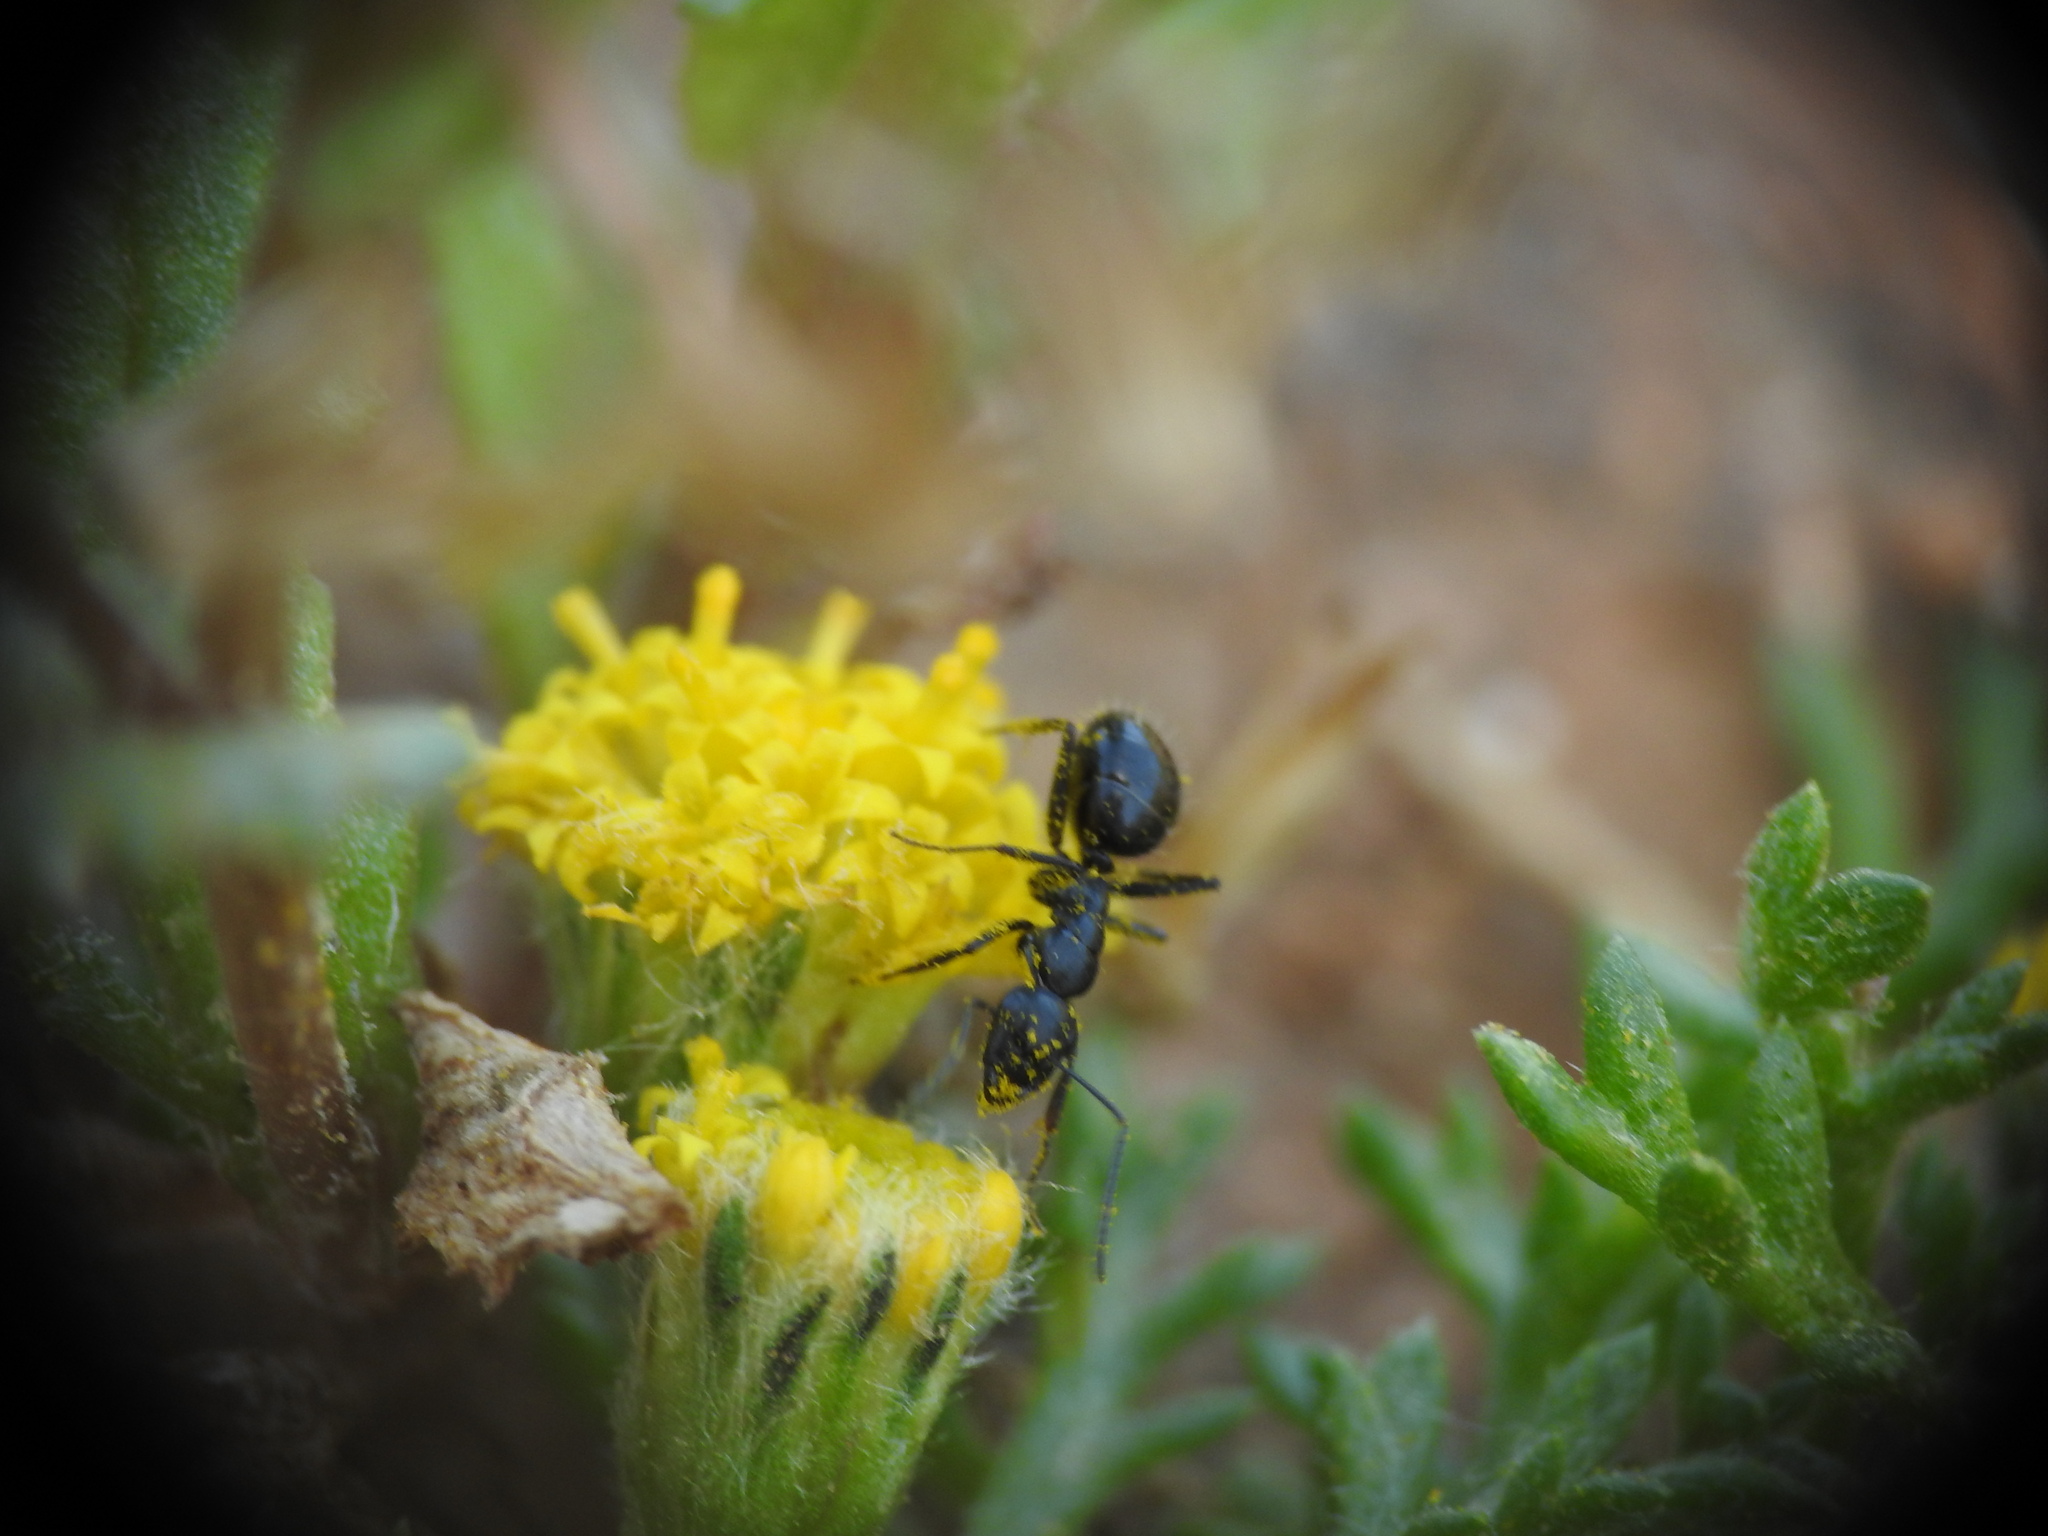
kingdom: Animalia
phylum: Arthropoda
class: Insecta
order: Hymenoptera
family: Formicidae
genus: Camponotus
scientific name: Camponotus gestroi
